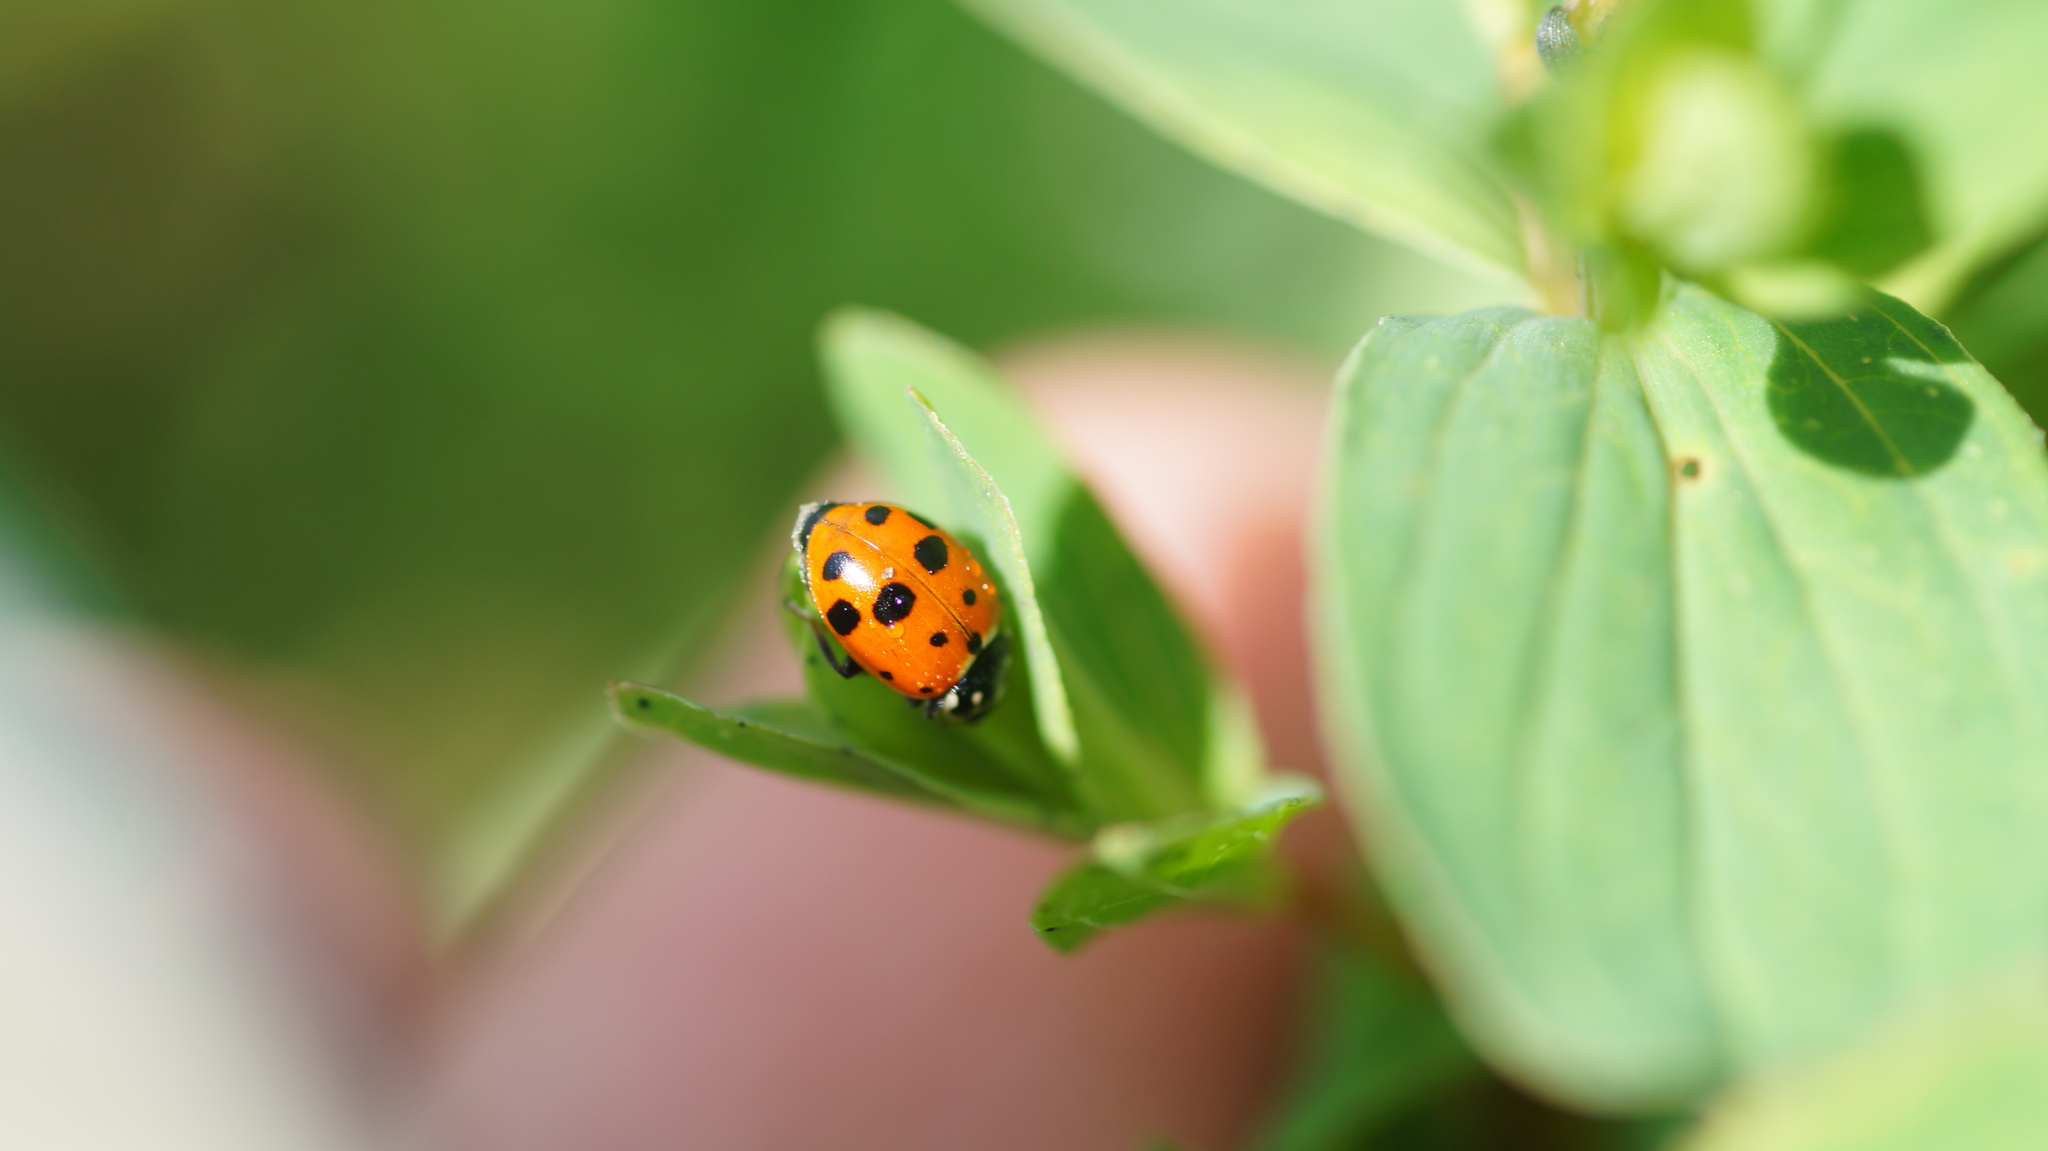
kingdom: Animalia
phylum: Arthropoda
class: Insecta
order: Coleoptera
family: Coccinellidae
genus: Hippodamia
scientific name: Hippodamia variegata
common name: Ladybird beetle
